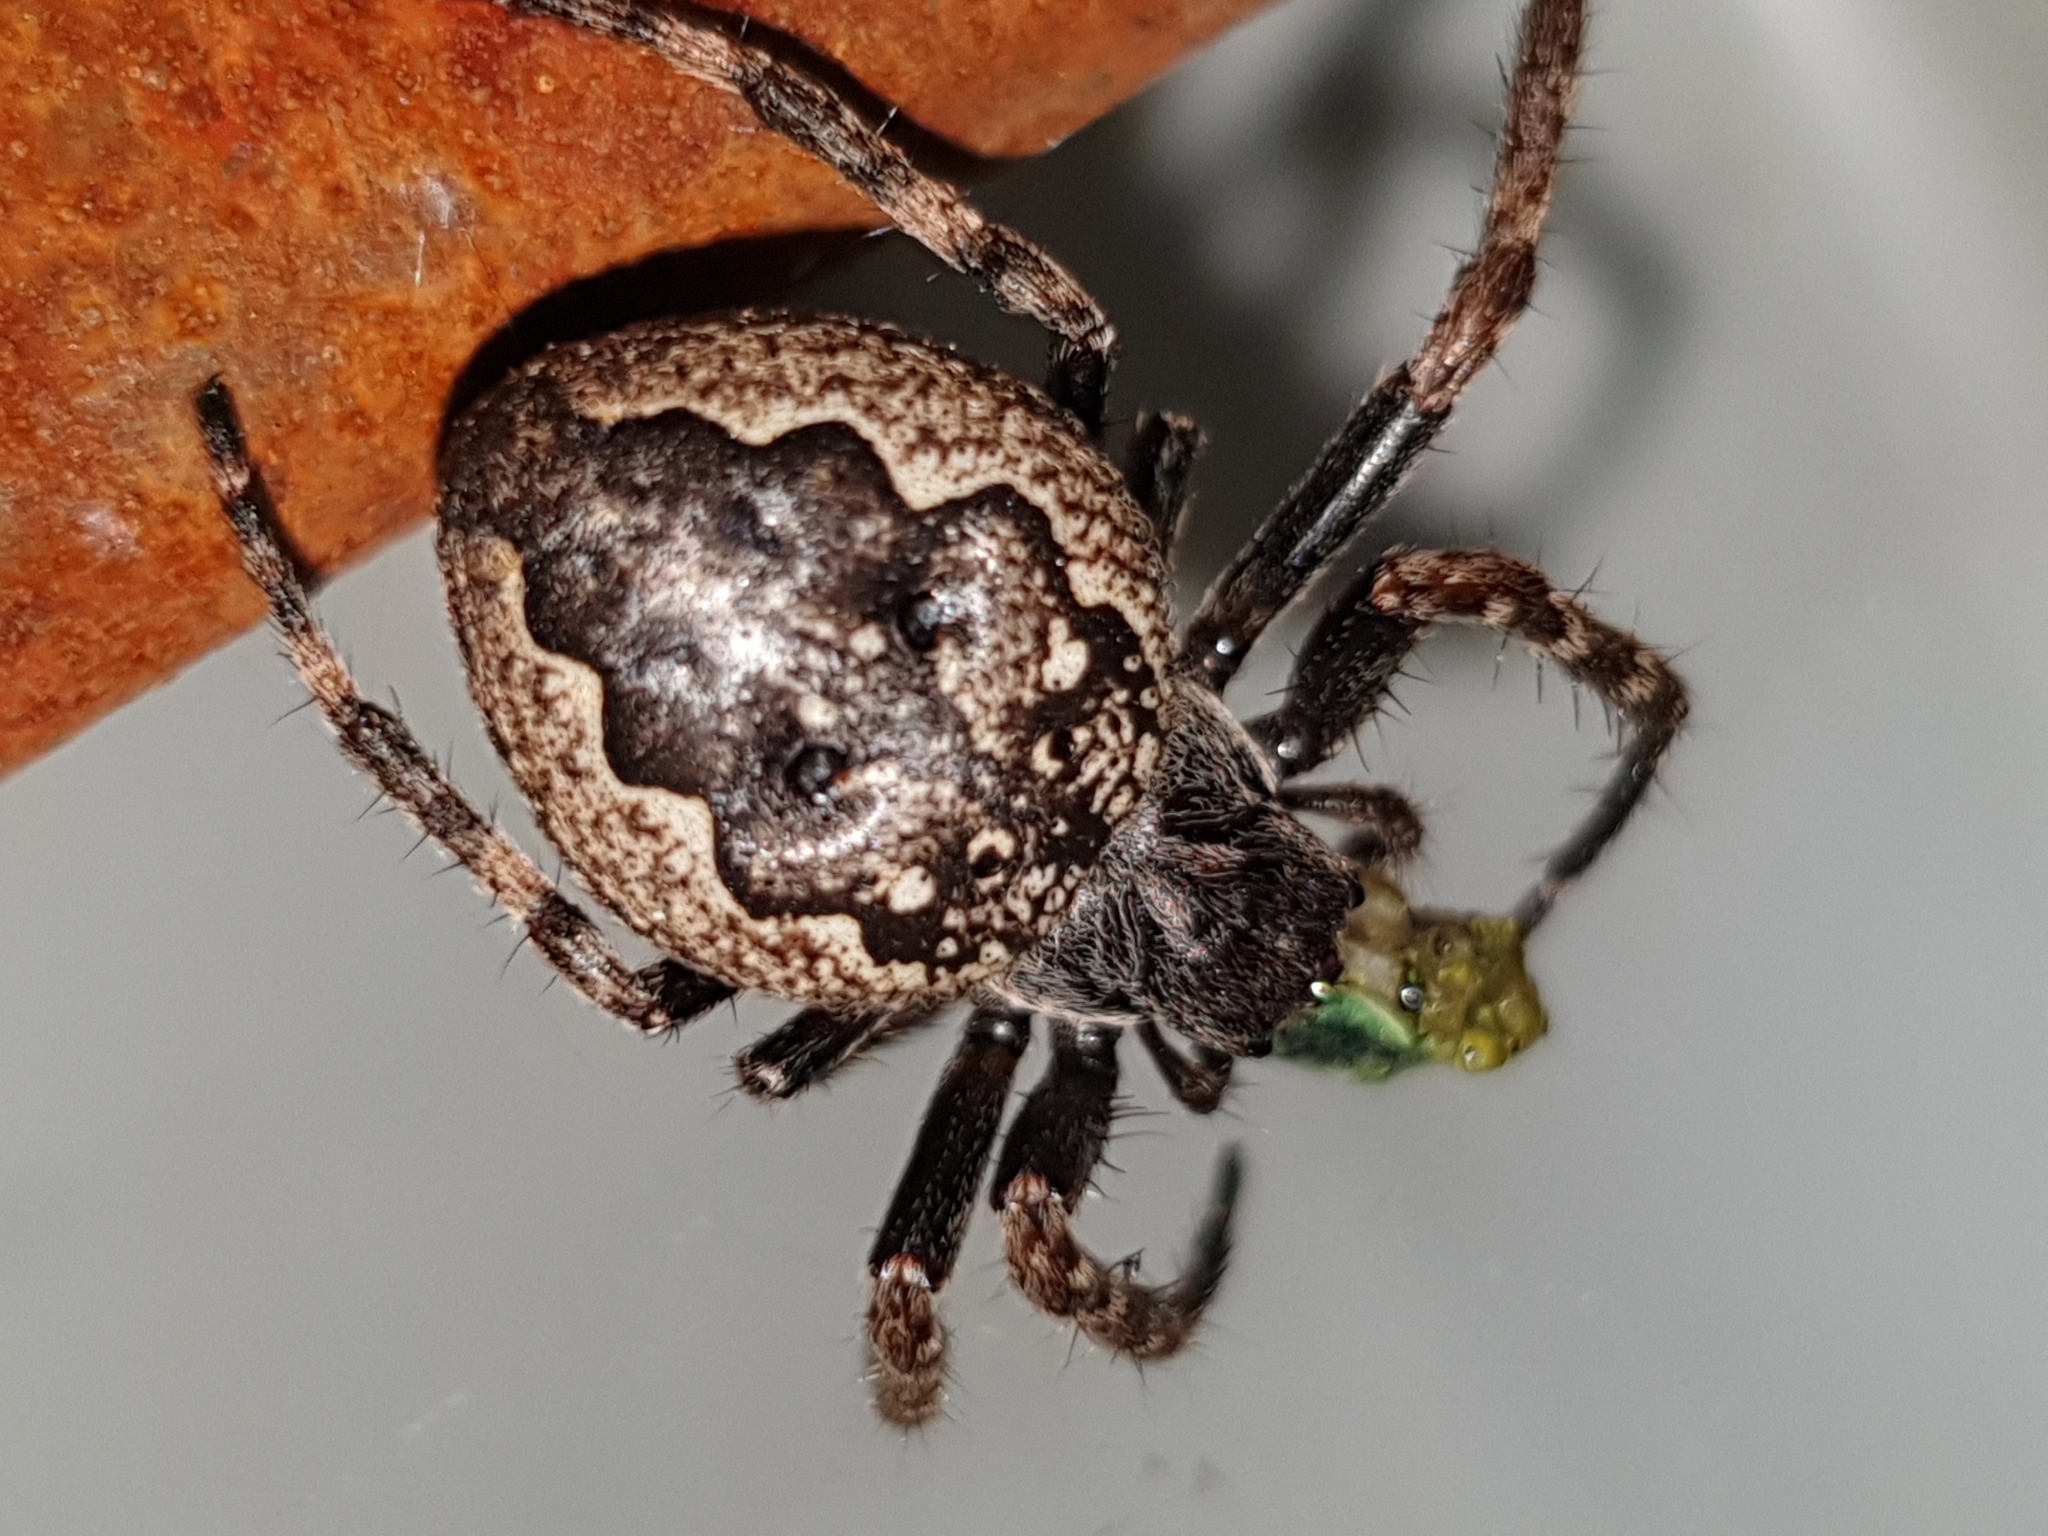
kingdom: Animalia
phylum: Arthropoda
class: Arachnida
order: Araneae
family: Araneidae
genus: Nuctenea
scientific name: Nuctenea umbratica
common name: Toad spider
